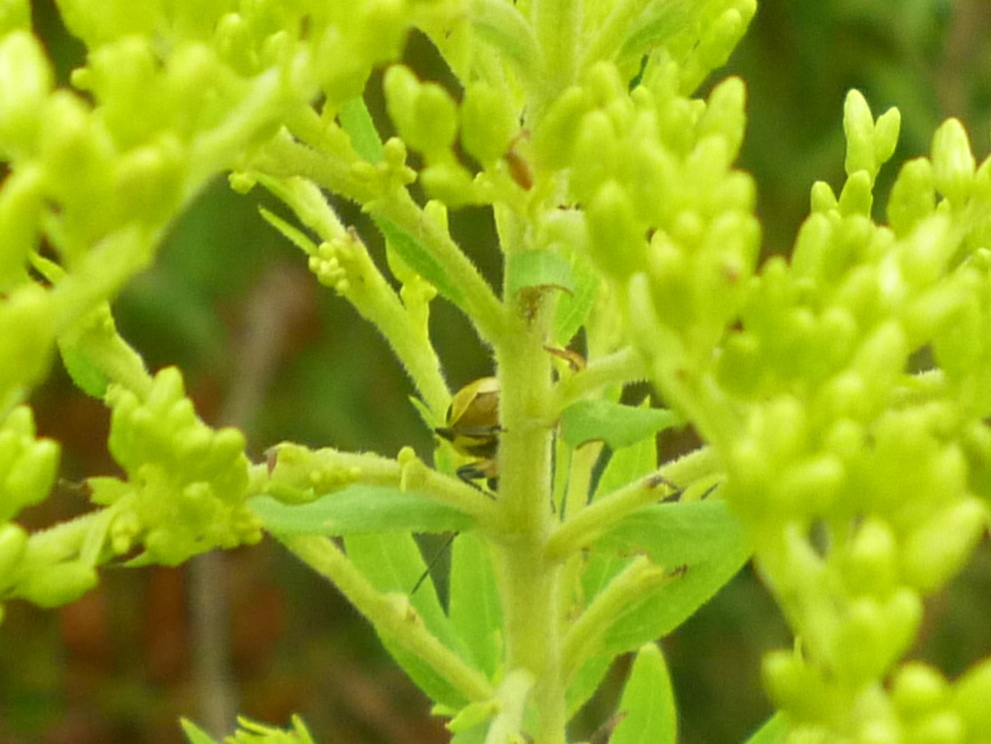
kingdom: Animalia
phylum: Arthropoda
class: Insecta
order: Coleoptera
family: Chrysomelidae
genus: Diabrotica
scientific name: Diabrotica undecimpunctata
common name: Spotted cucumber beetle
